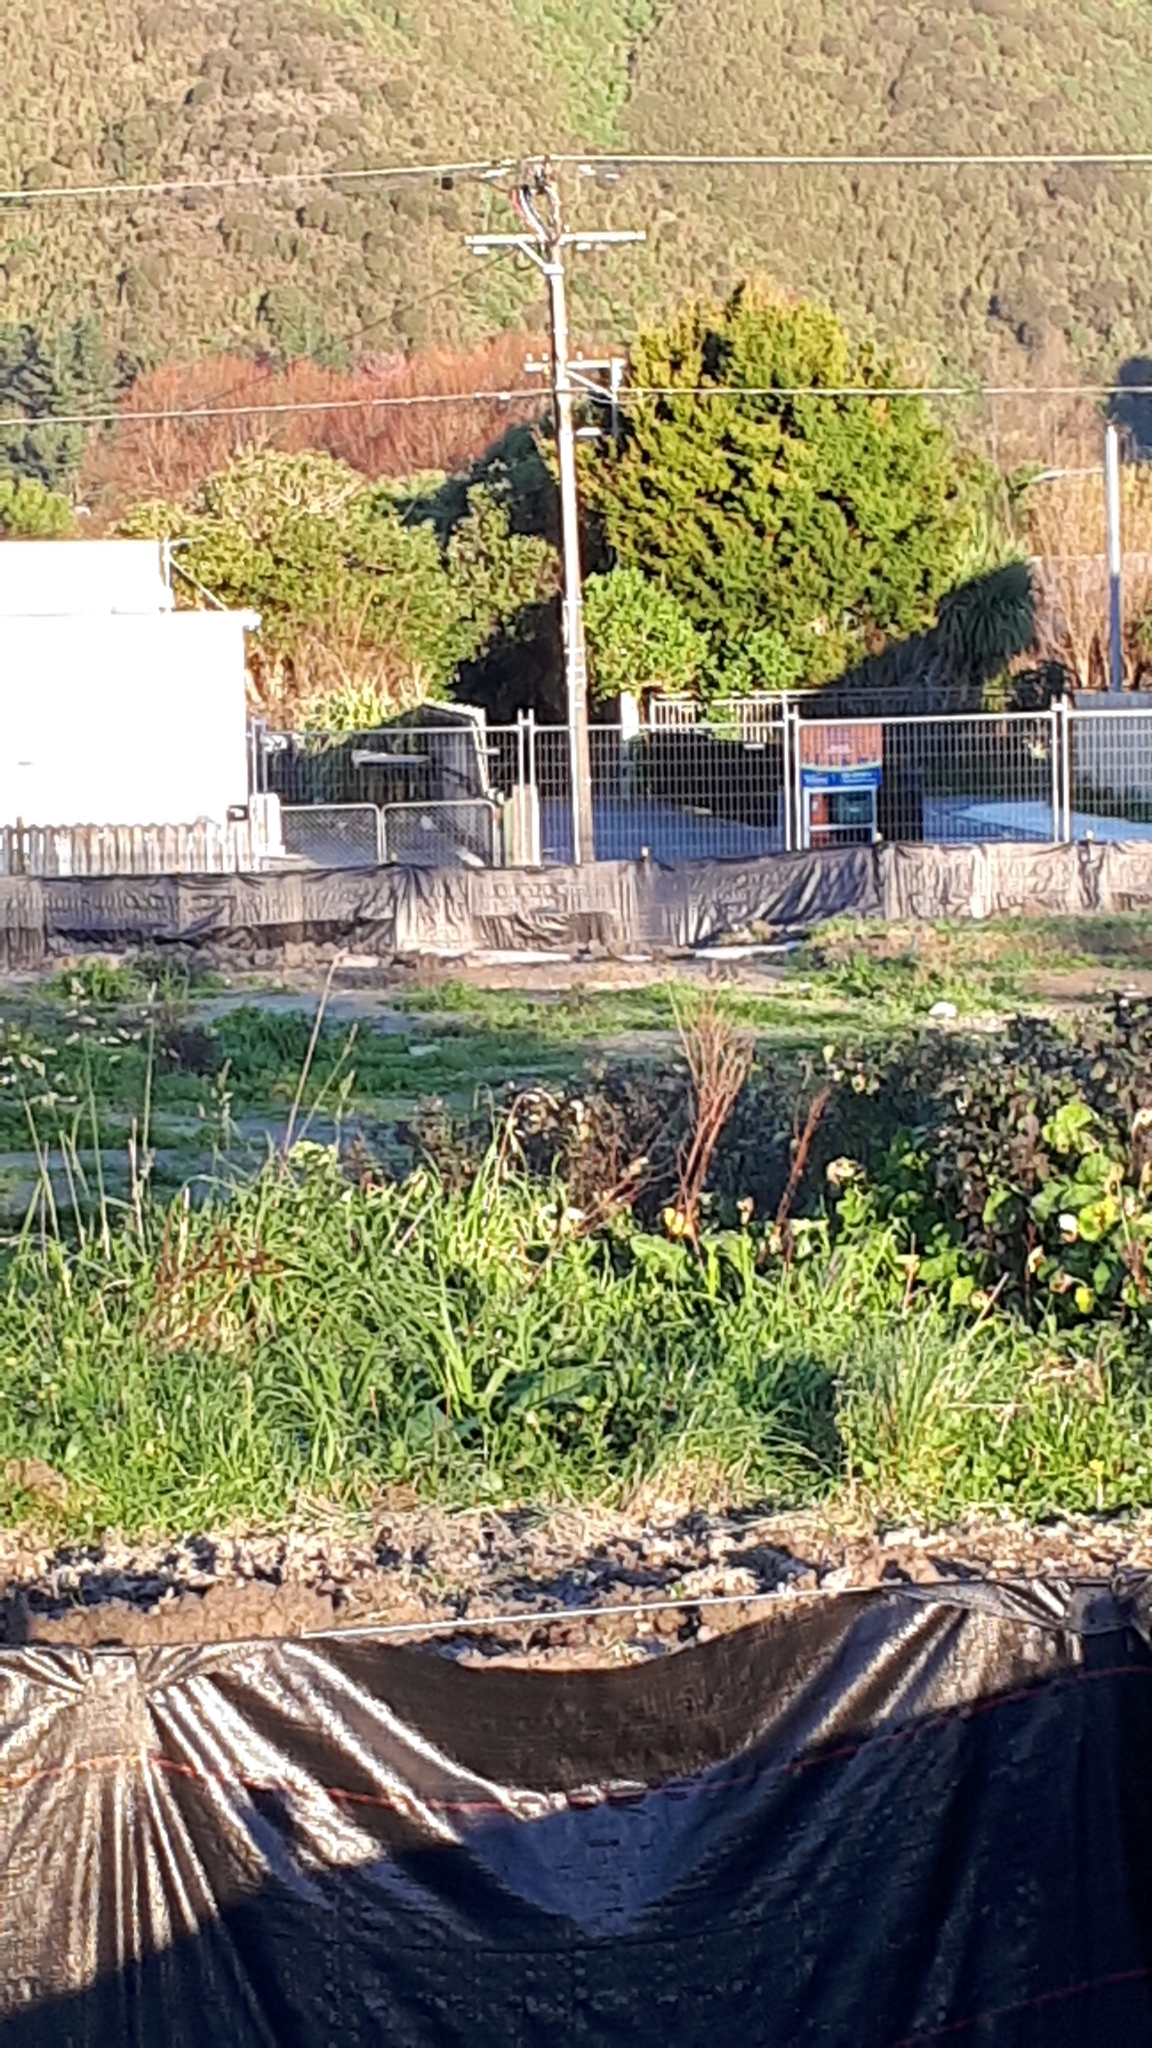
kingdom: Animalia
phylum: Chordata
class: Aves
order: Passeriformes
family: Emberizidae
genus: Emberiza
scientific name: Emberiza citrinella
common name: Yellowhammer
